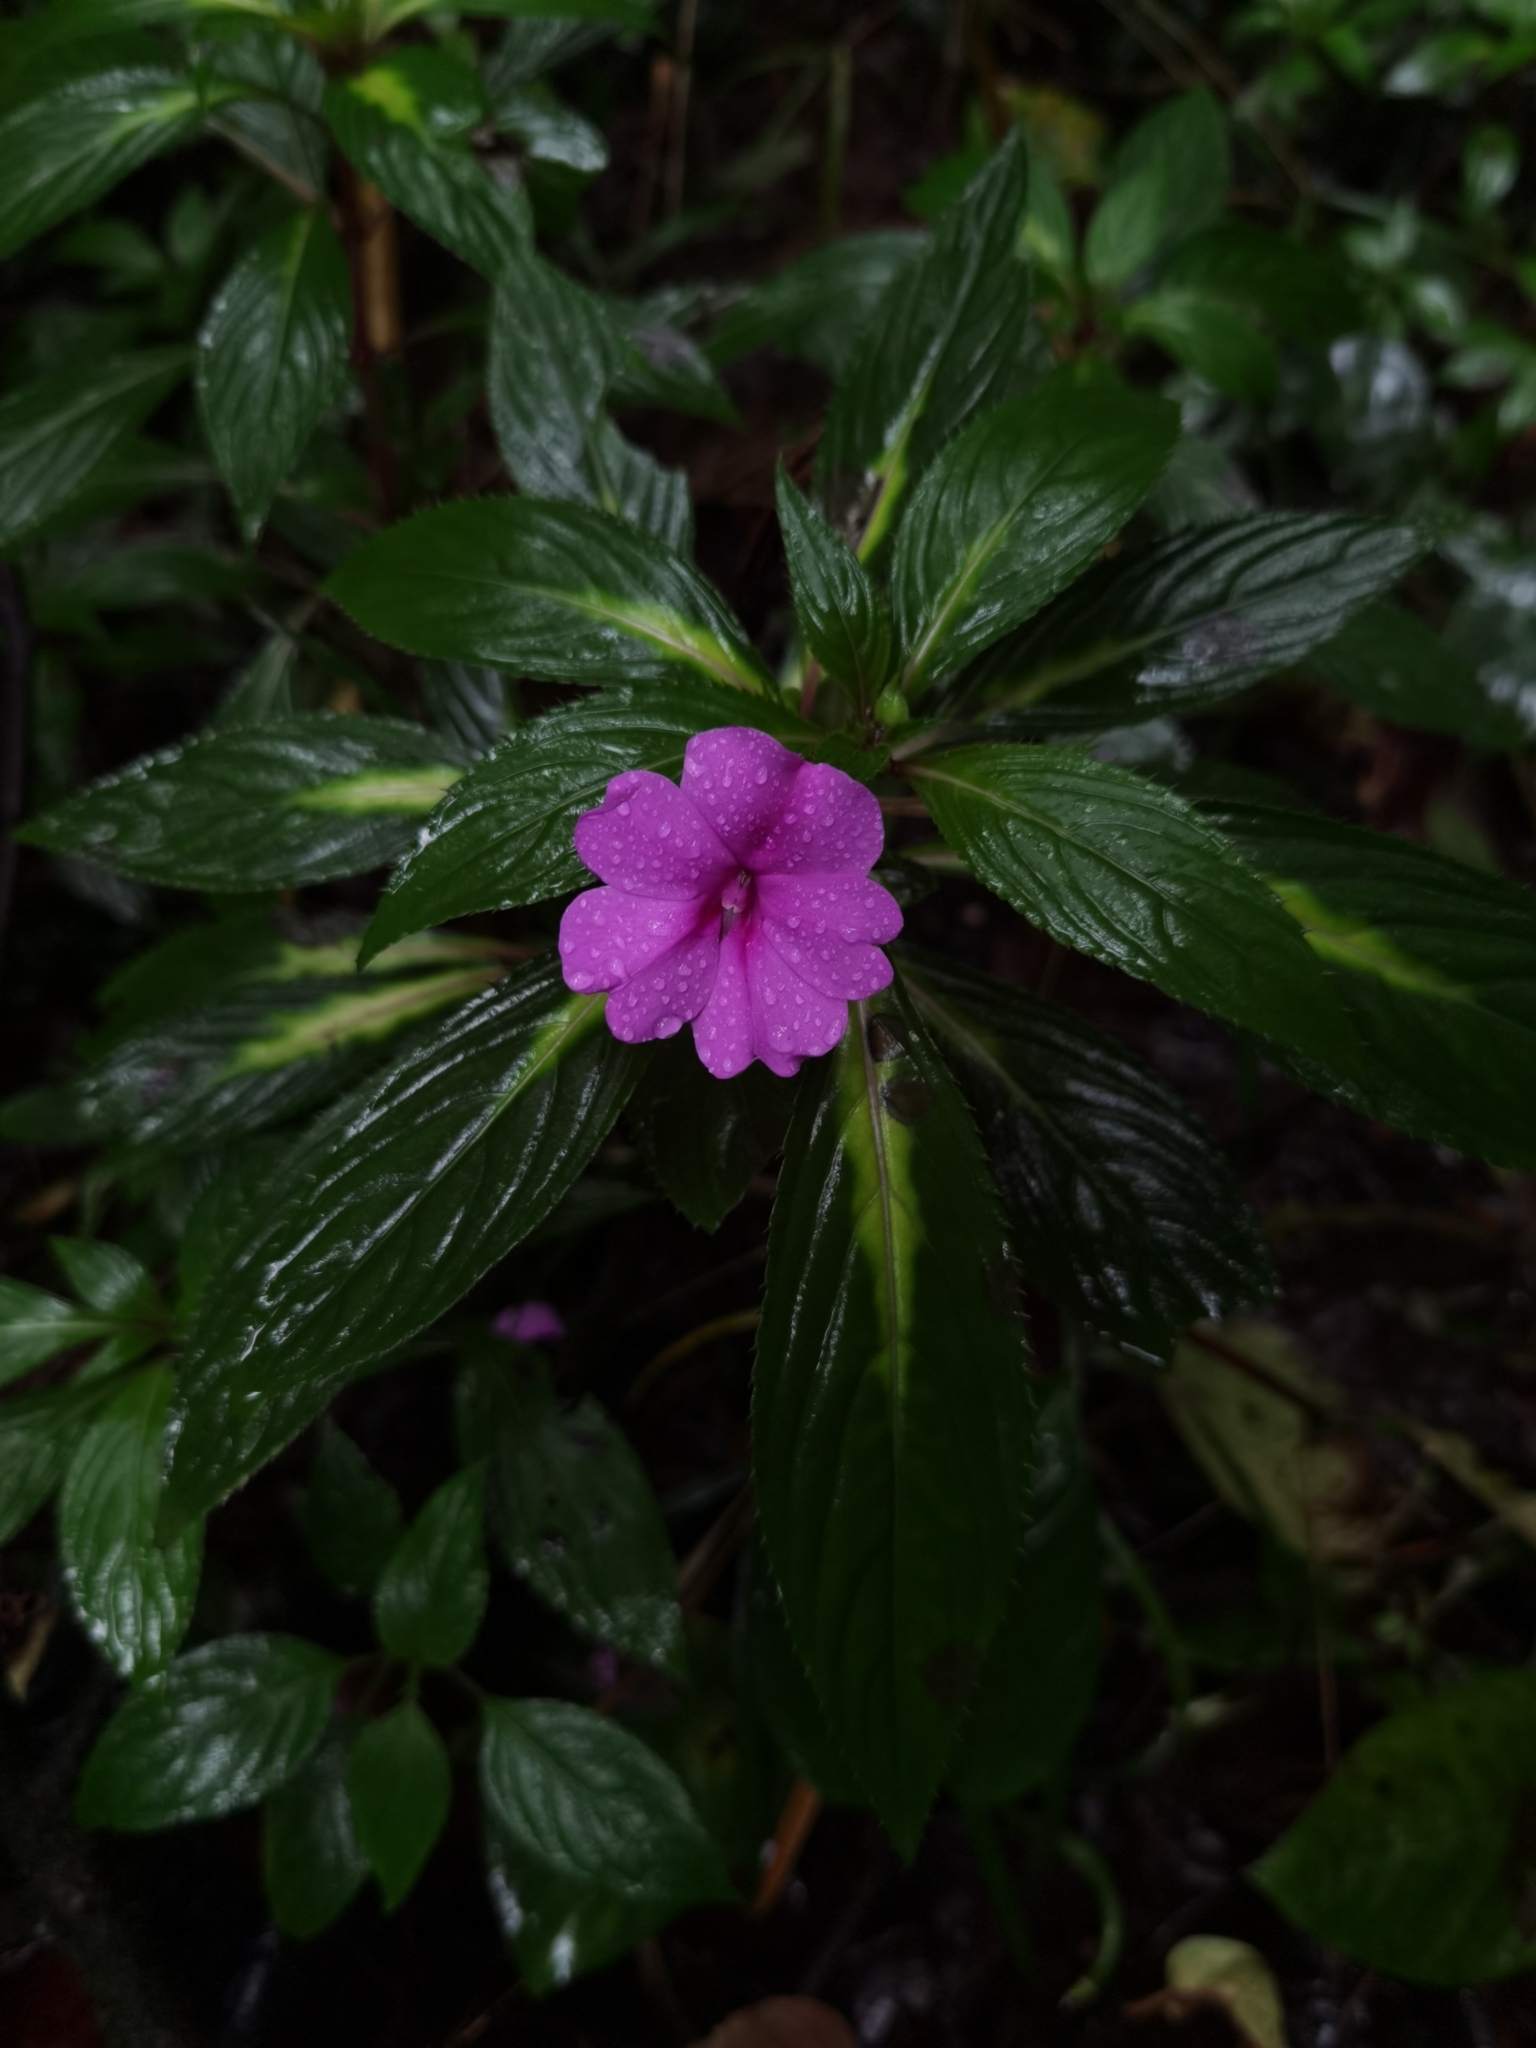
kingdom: Plantae
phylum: Tracheophyta
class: Magnoliopsida
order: Ericales
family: Balsaminaceae
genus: Impatiens
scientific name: Impatiens hawkeri
